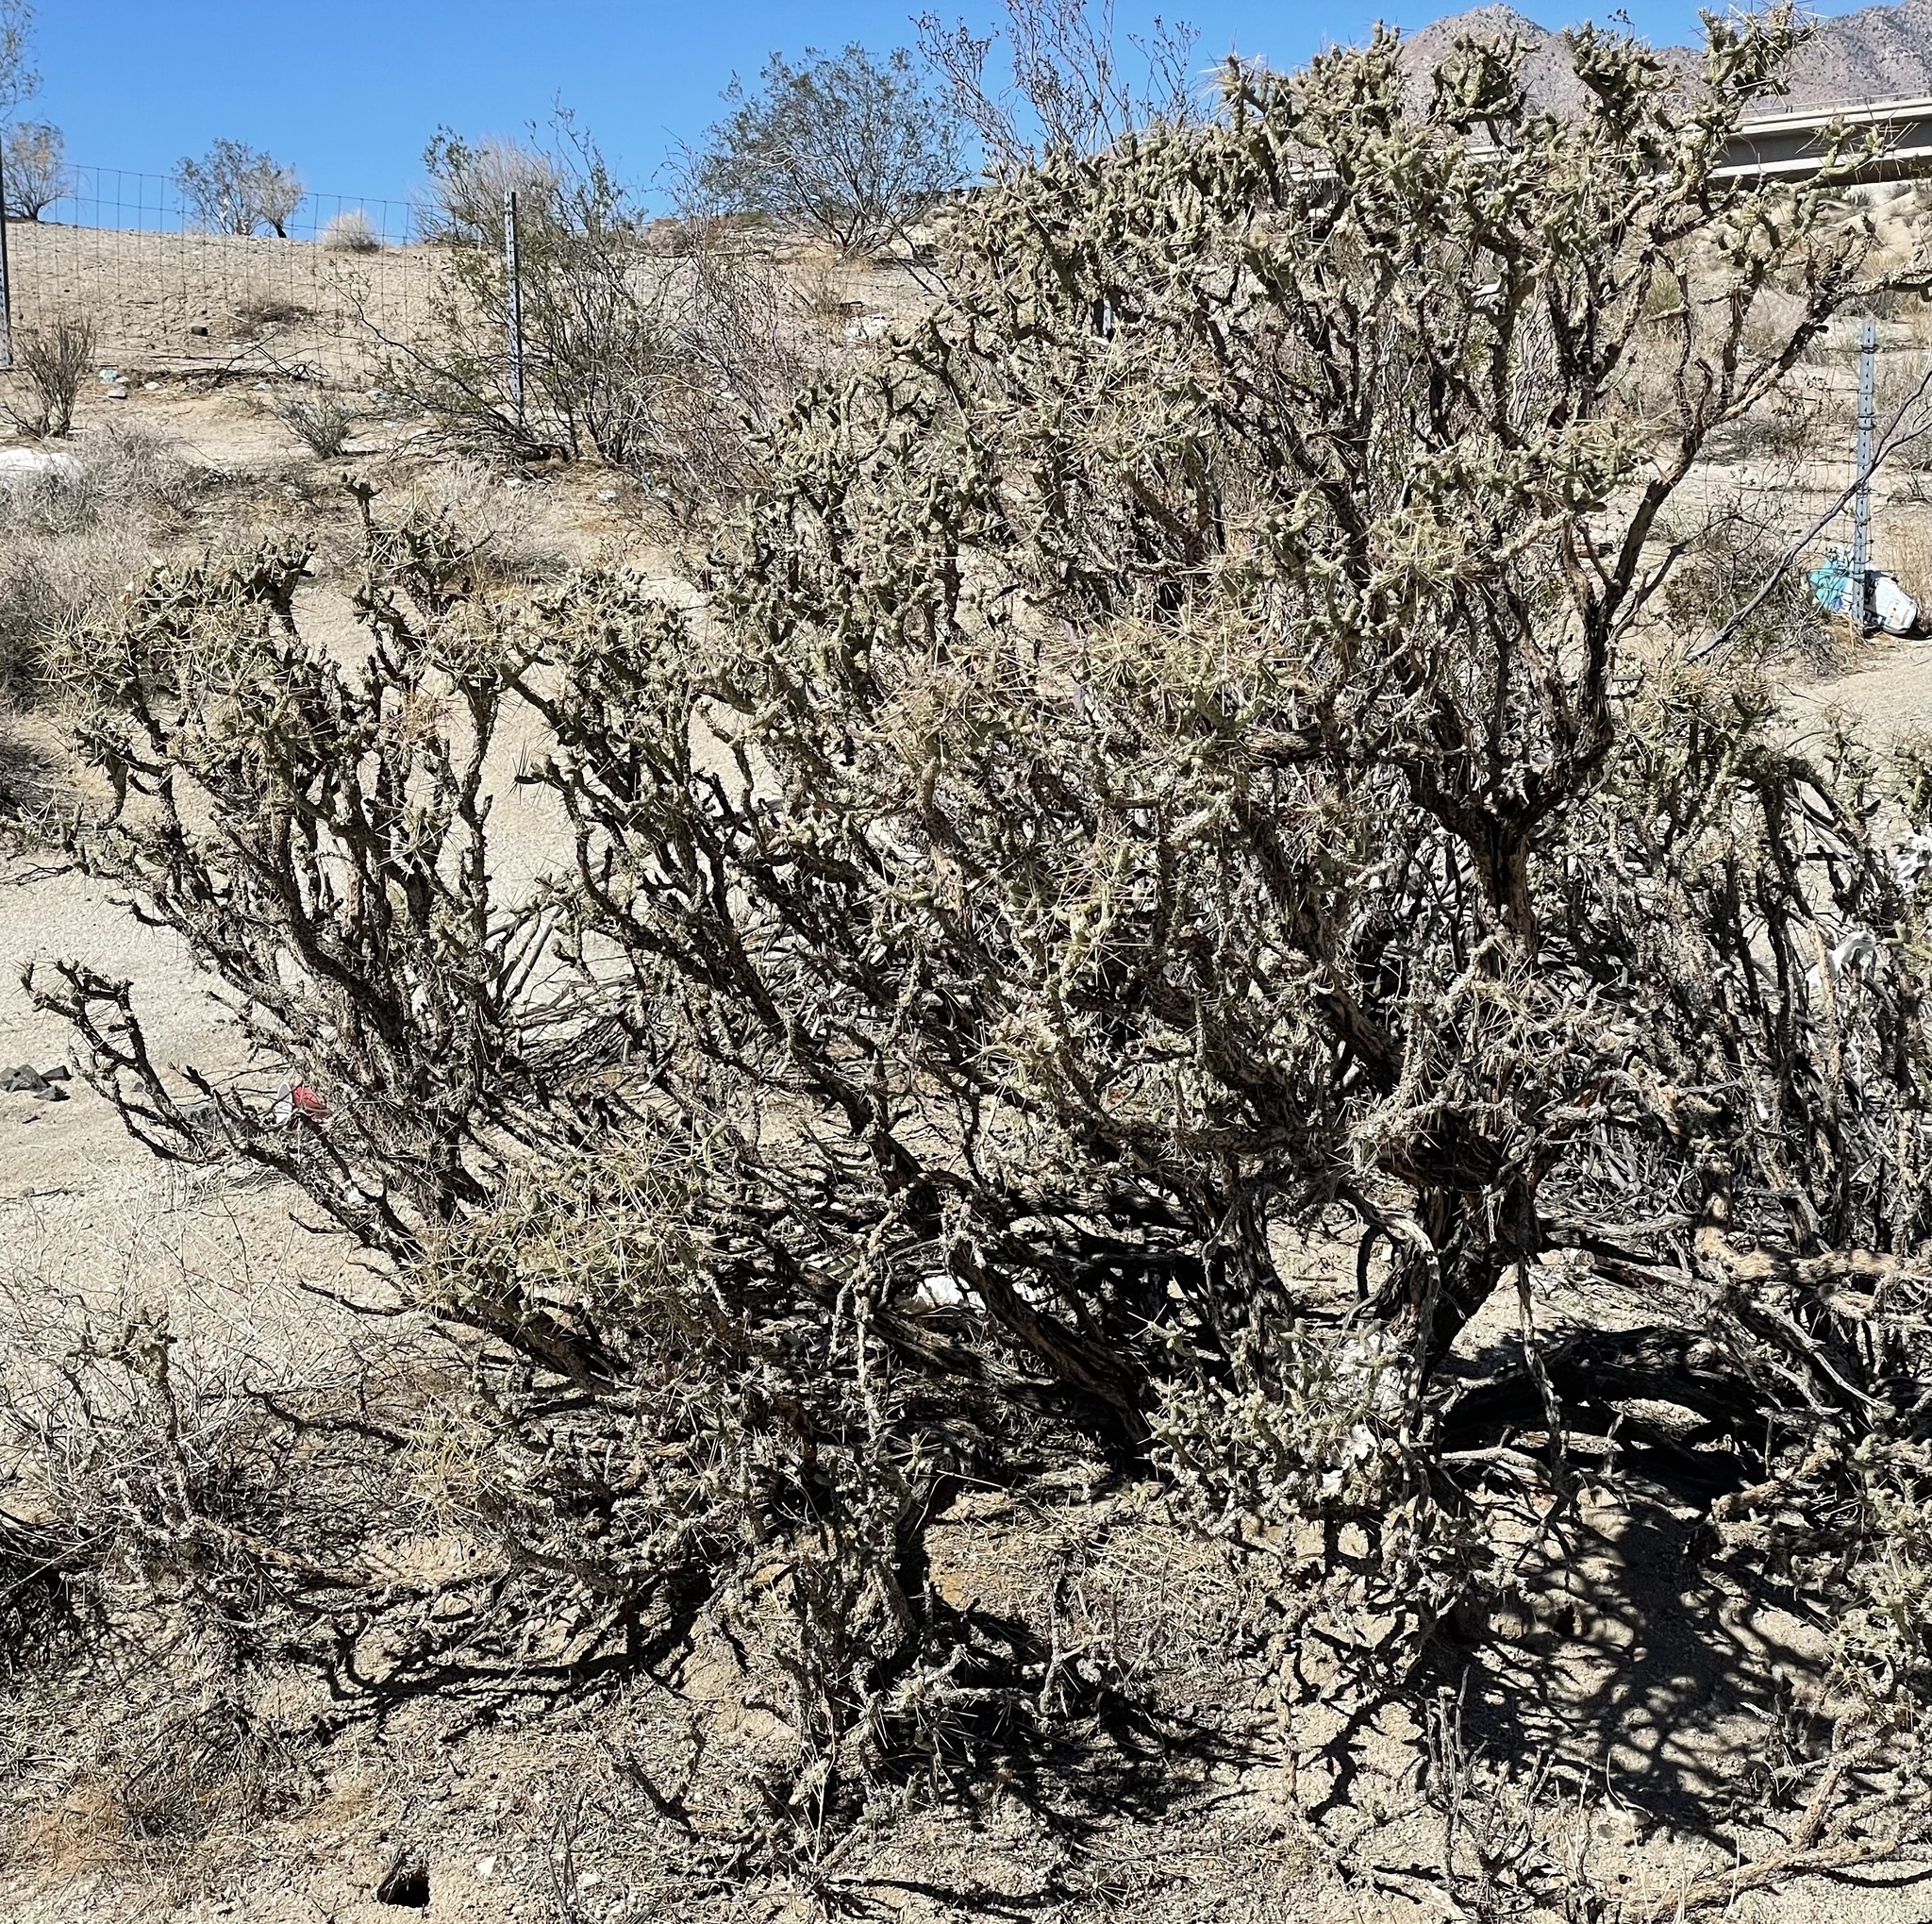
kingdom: Plantae
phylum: Tracheophyta
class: Magnoliopsida
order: Caryophyllales
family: Cactaceae
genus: Cylindropuntia
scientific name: Cylindropuntia ramosissima
